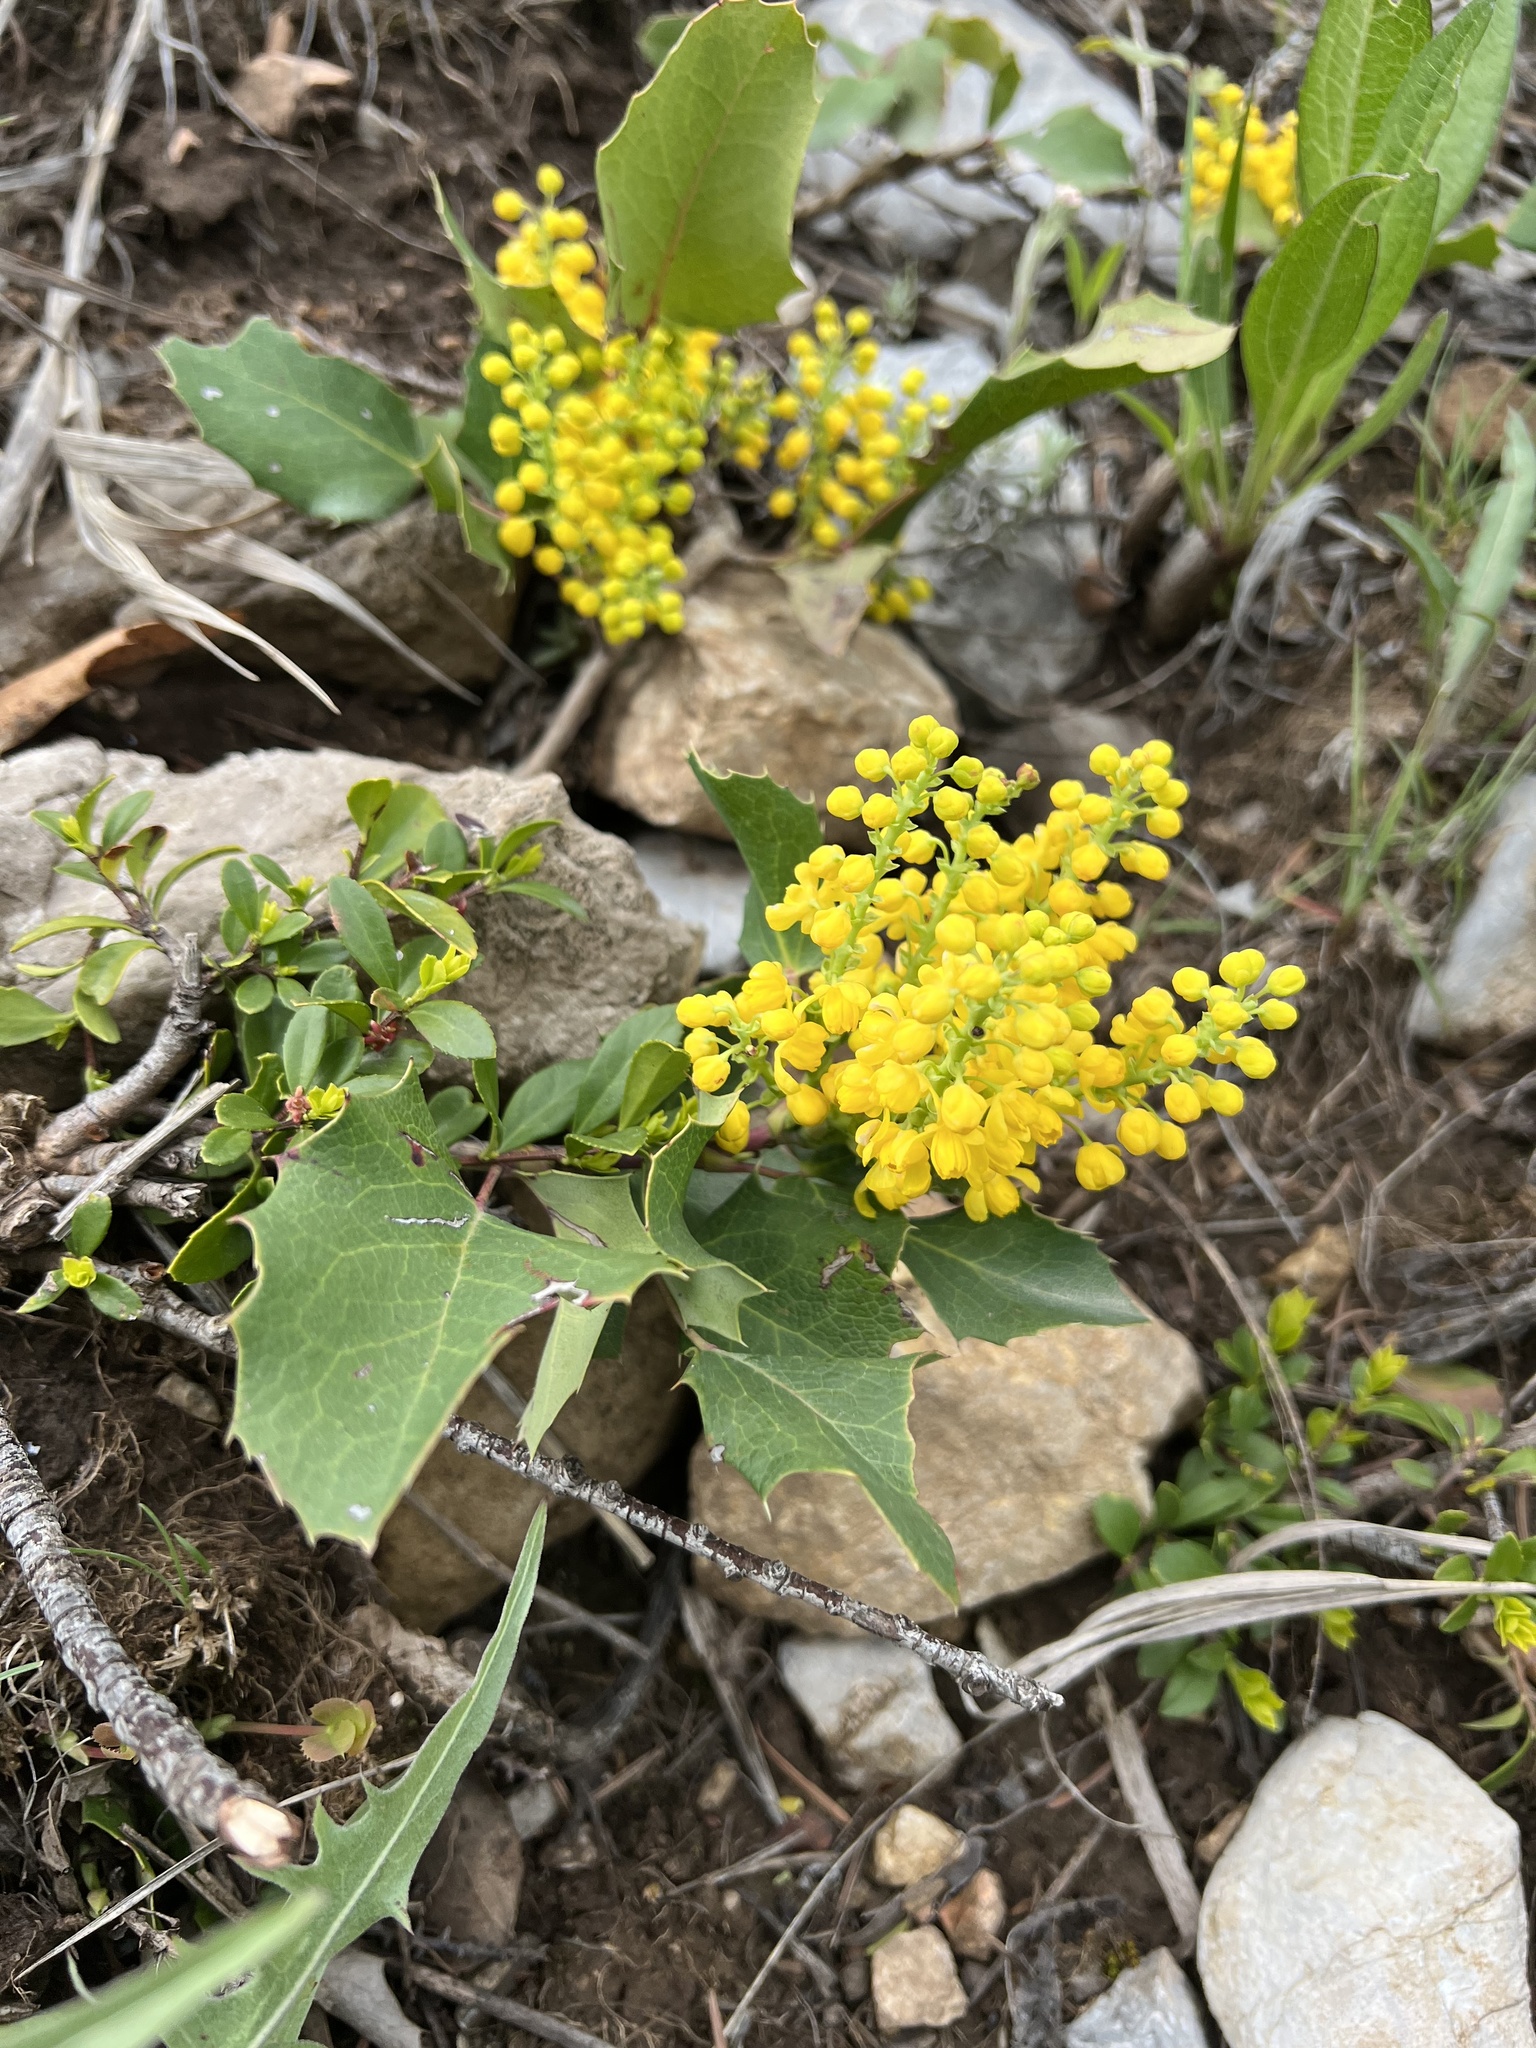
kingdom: Plantae
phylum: Tracheophyta
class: Magnoliopsida
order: Ranunculales
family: Berberidaceae
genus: Mahonia
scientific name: Mahonia repens
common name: Creeping oregon-grape
